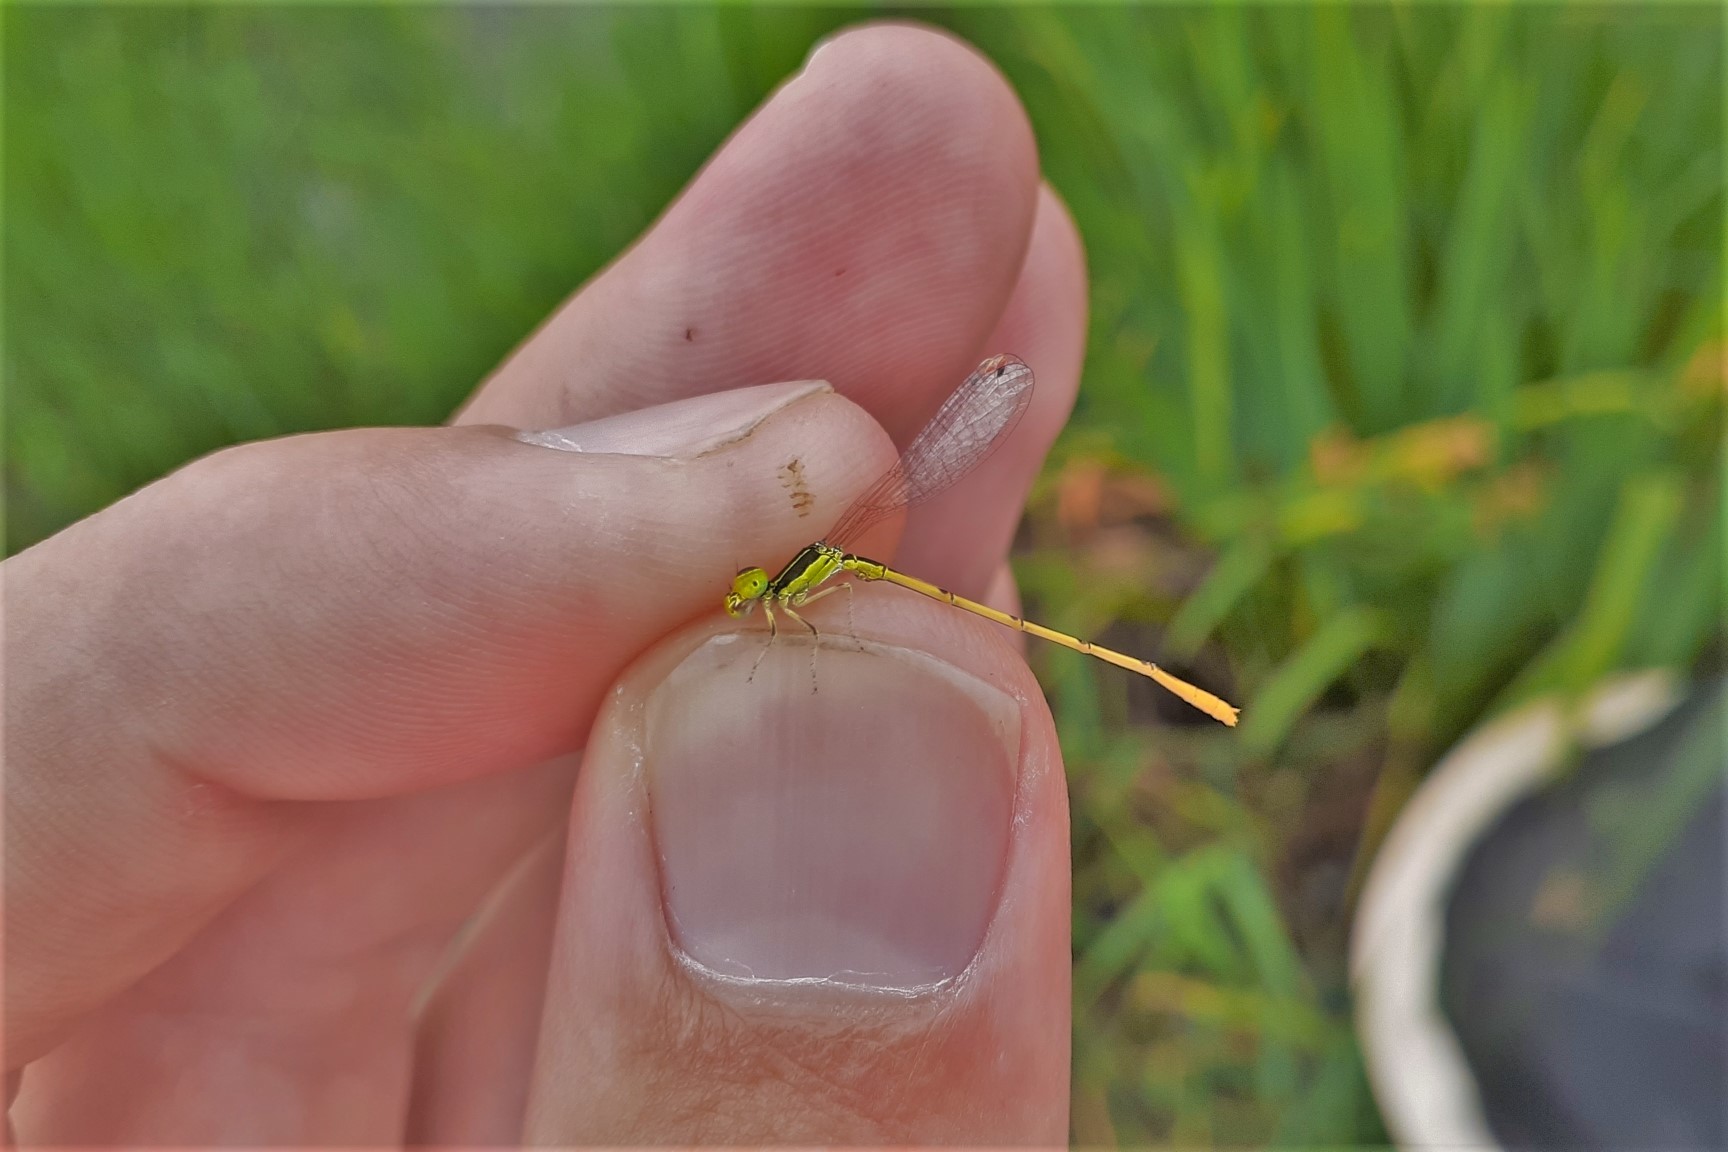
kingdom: Animalia
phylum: Arthropoda
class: Insecta
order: Odonata
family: Coenagrionidae
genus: Ischnura
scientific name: Ischnura hastata
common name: Citrine forktail
